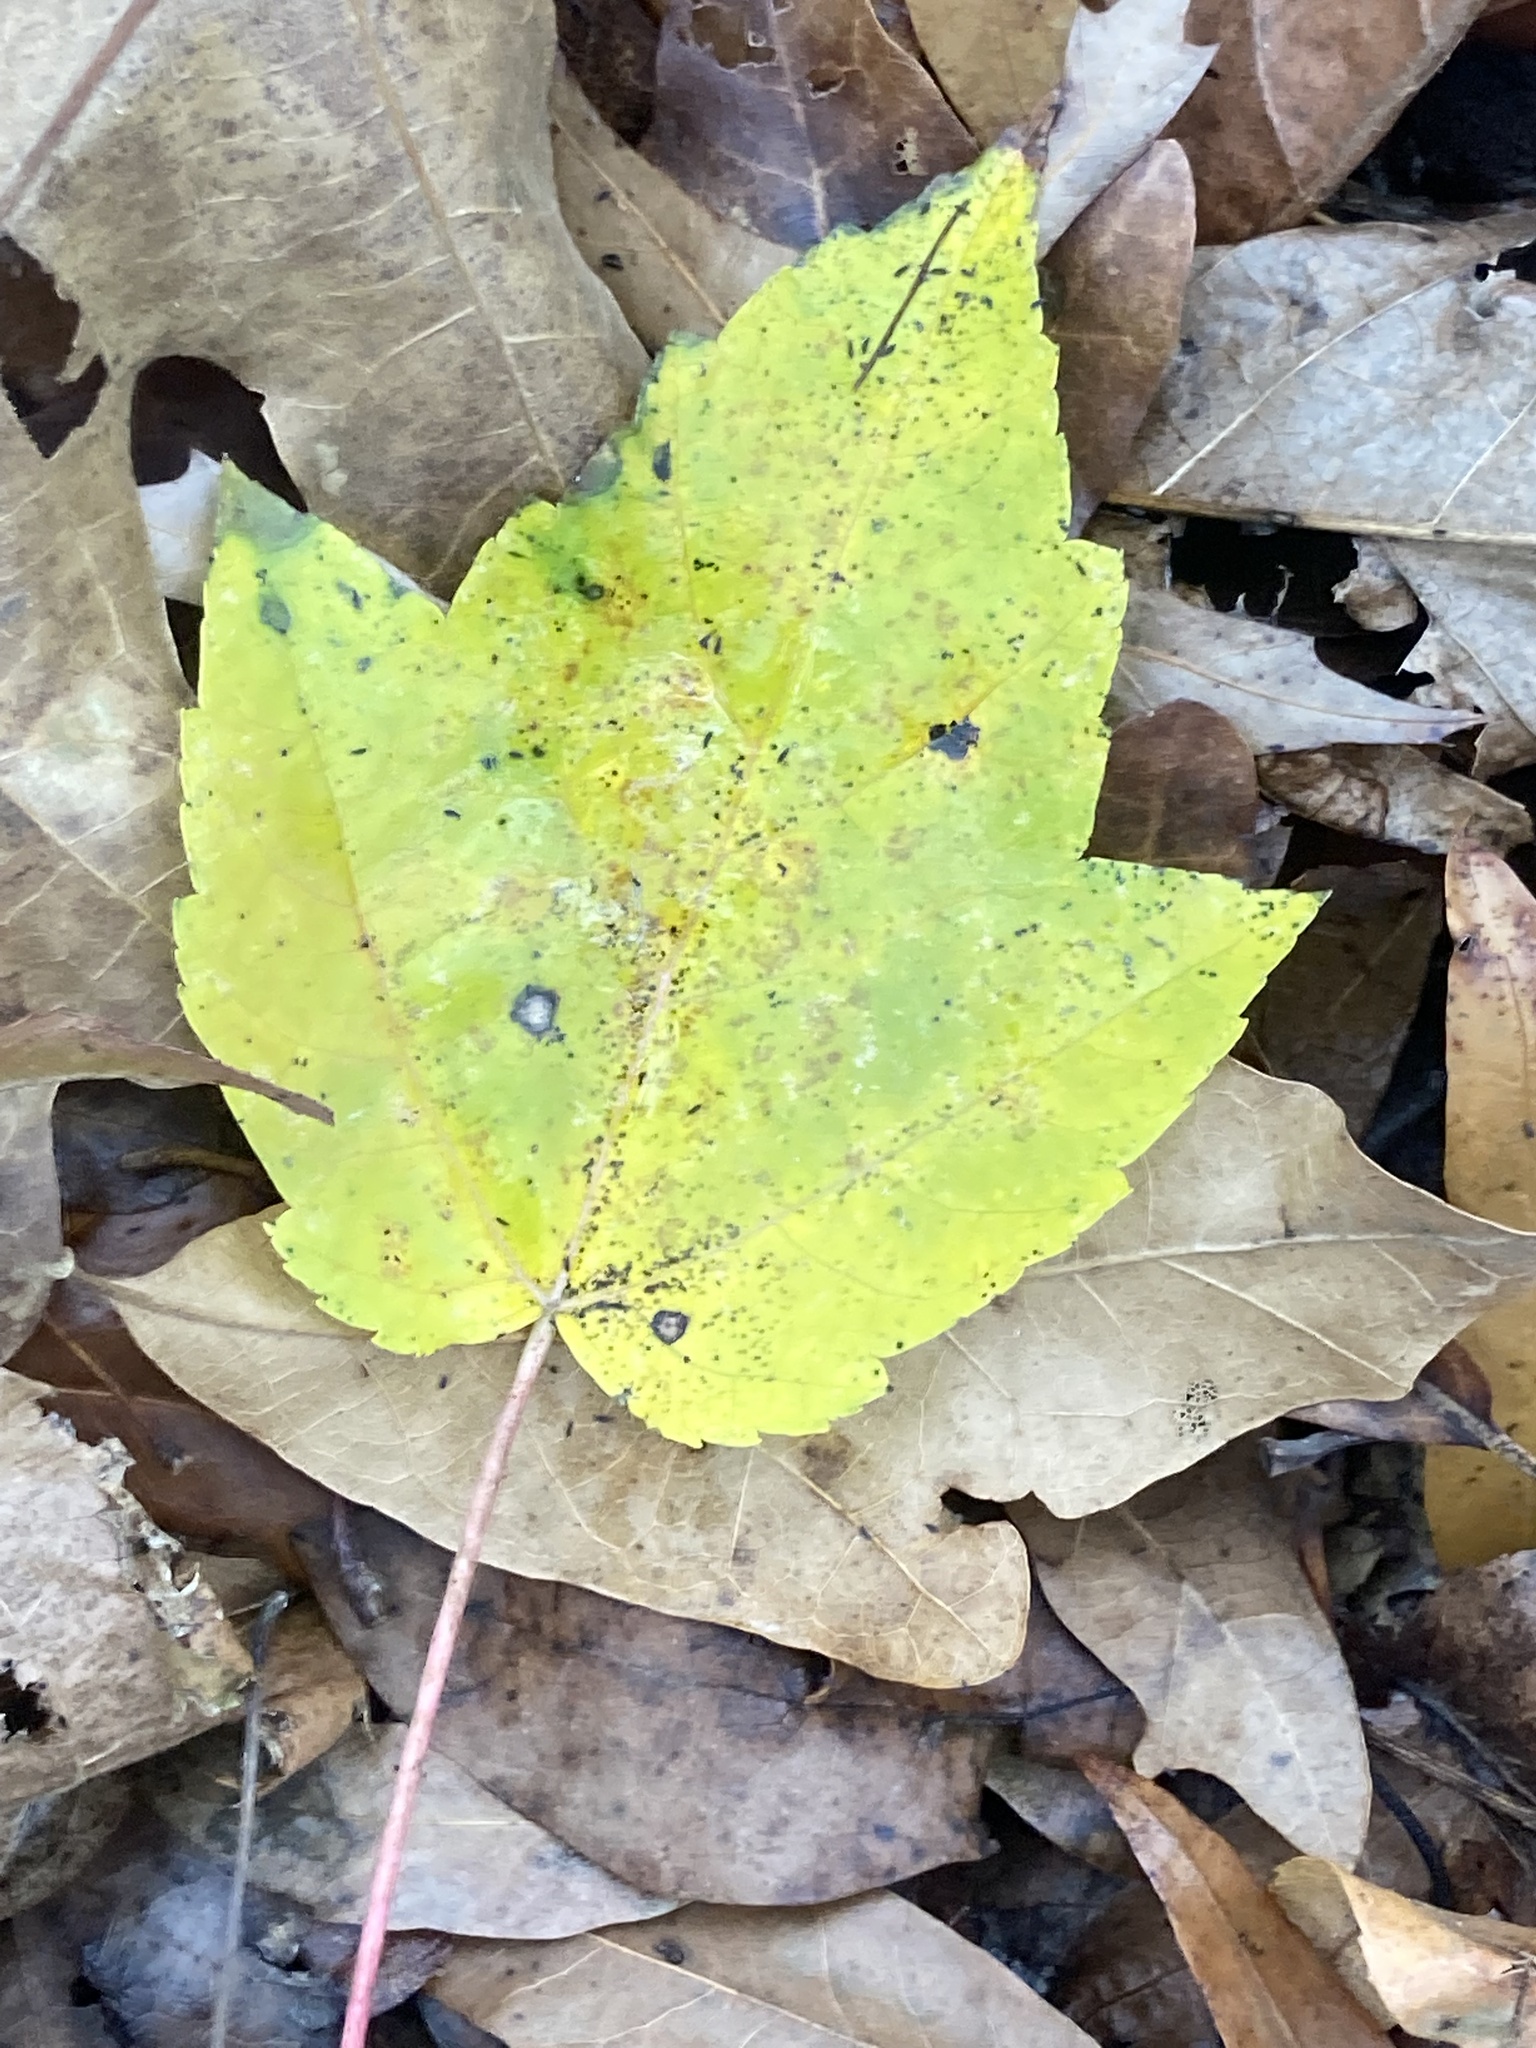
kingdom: Plantae
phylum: Tracheophyta
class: Magnoliopsida
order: Sapindales
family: Sapindaceae
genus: Acer
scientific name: Acer rubrum
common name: Red maple
